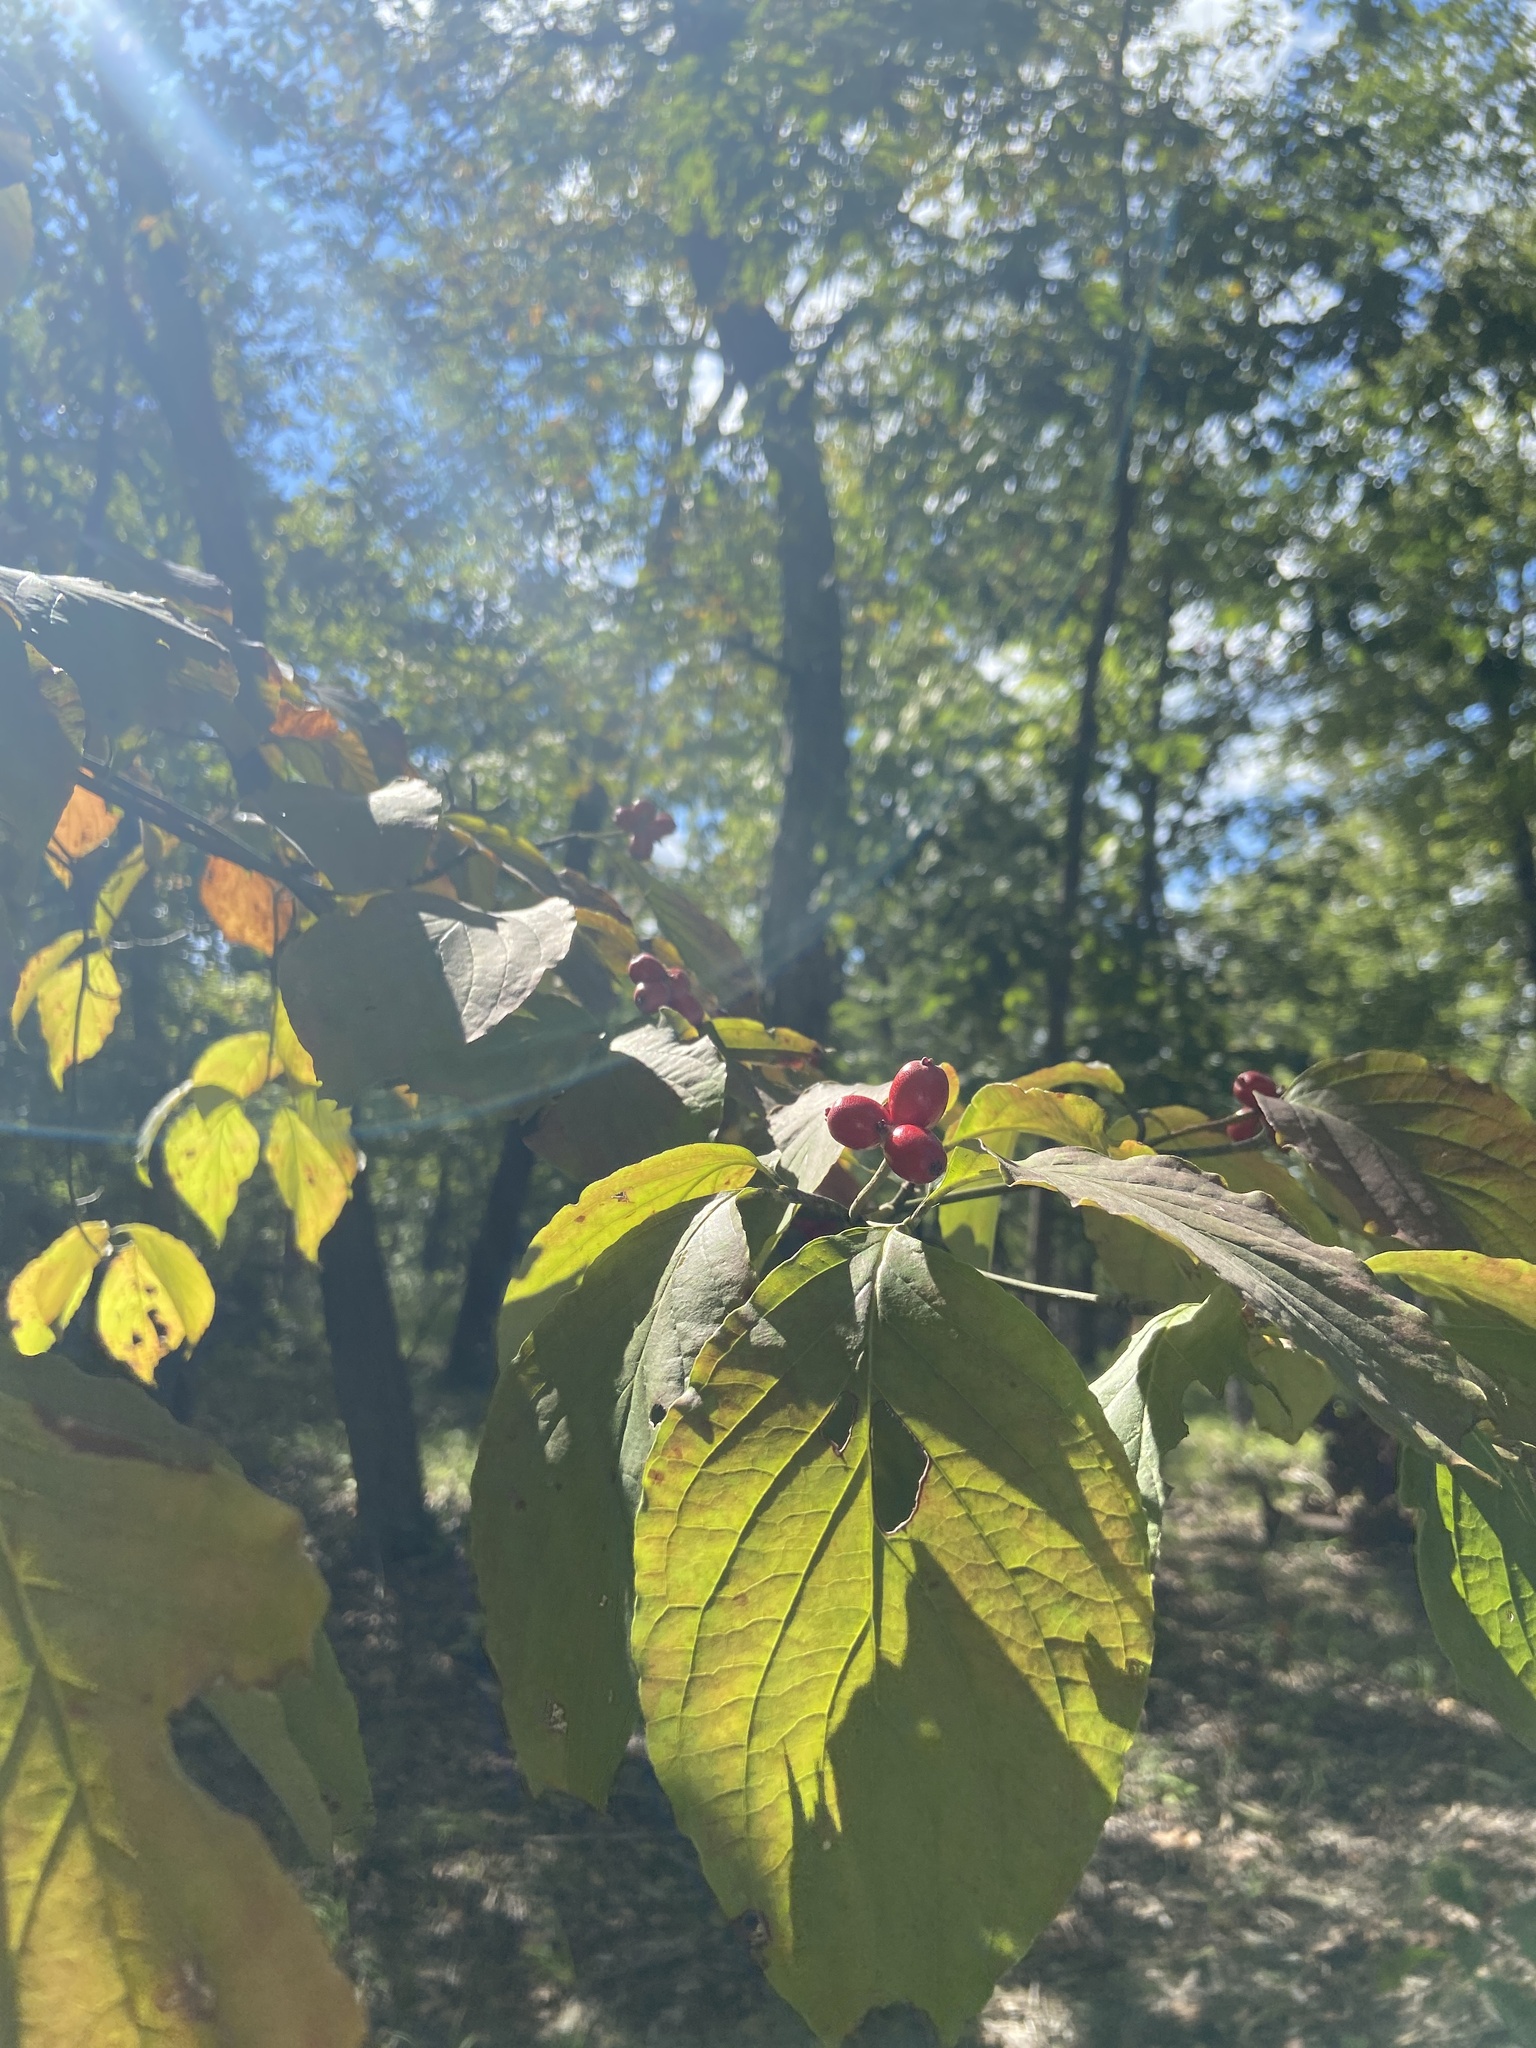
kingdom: Plantae
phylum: Tracheophyta
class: Magnoliopsida
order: Cornales
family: Cornaceae
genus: Cornus
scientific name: Cornus florida
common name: Flowering dogwood
